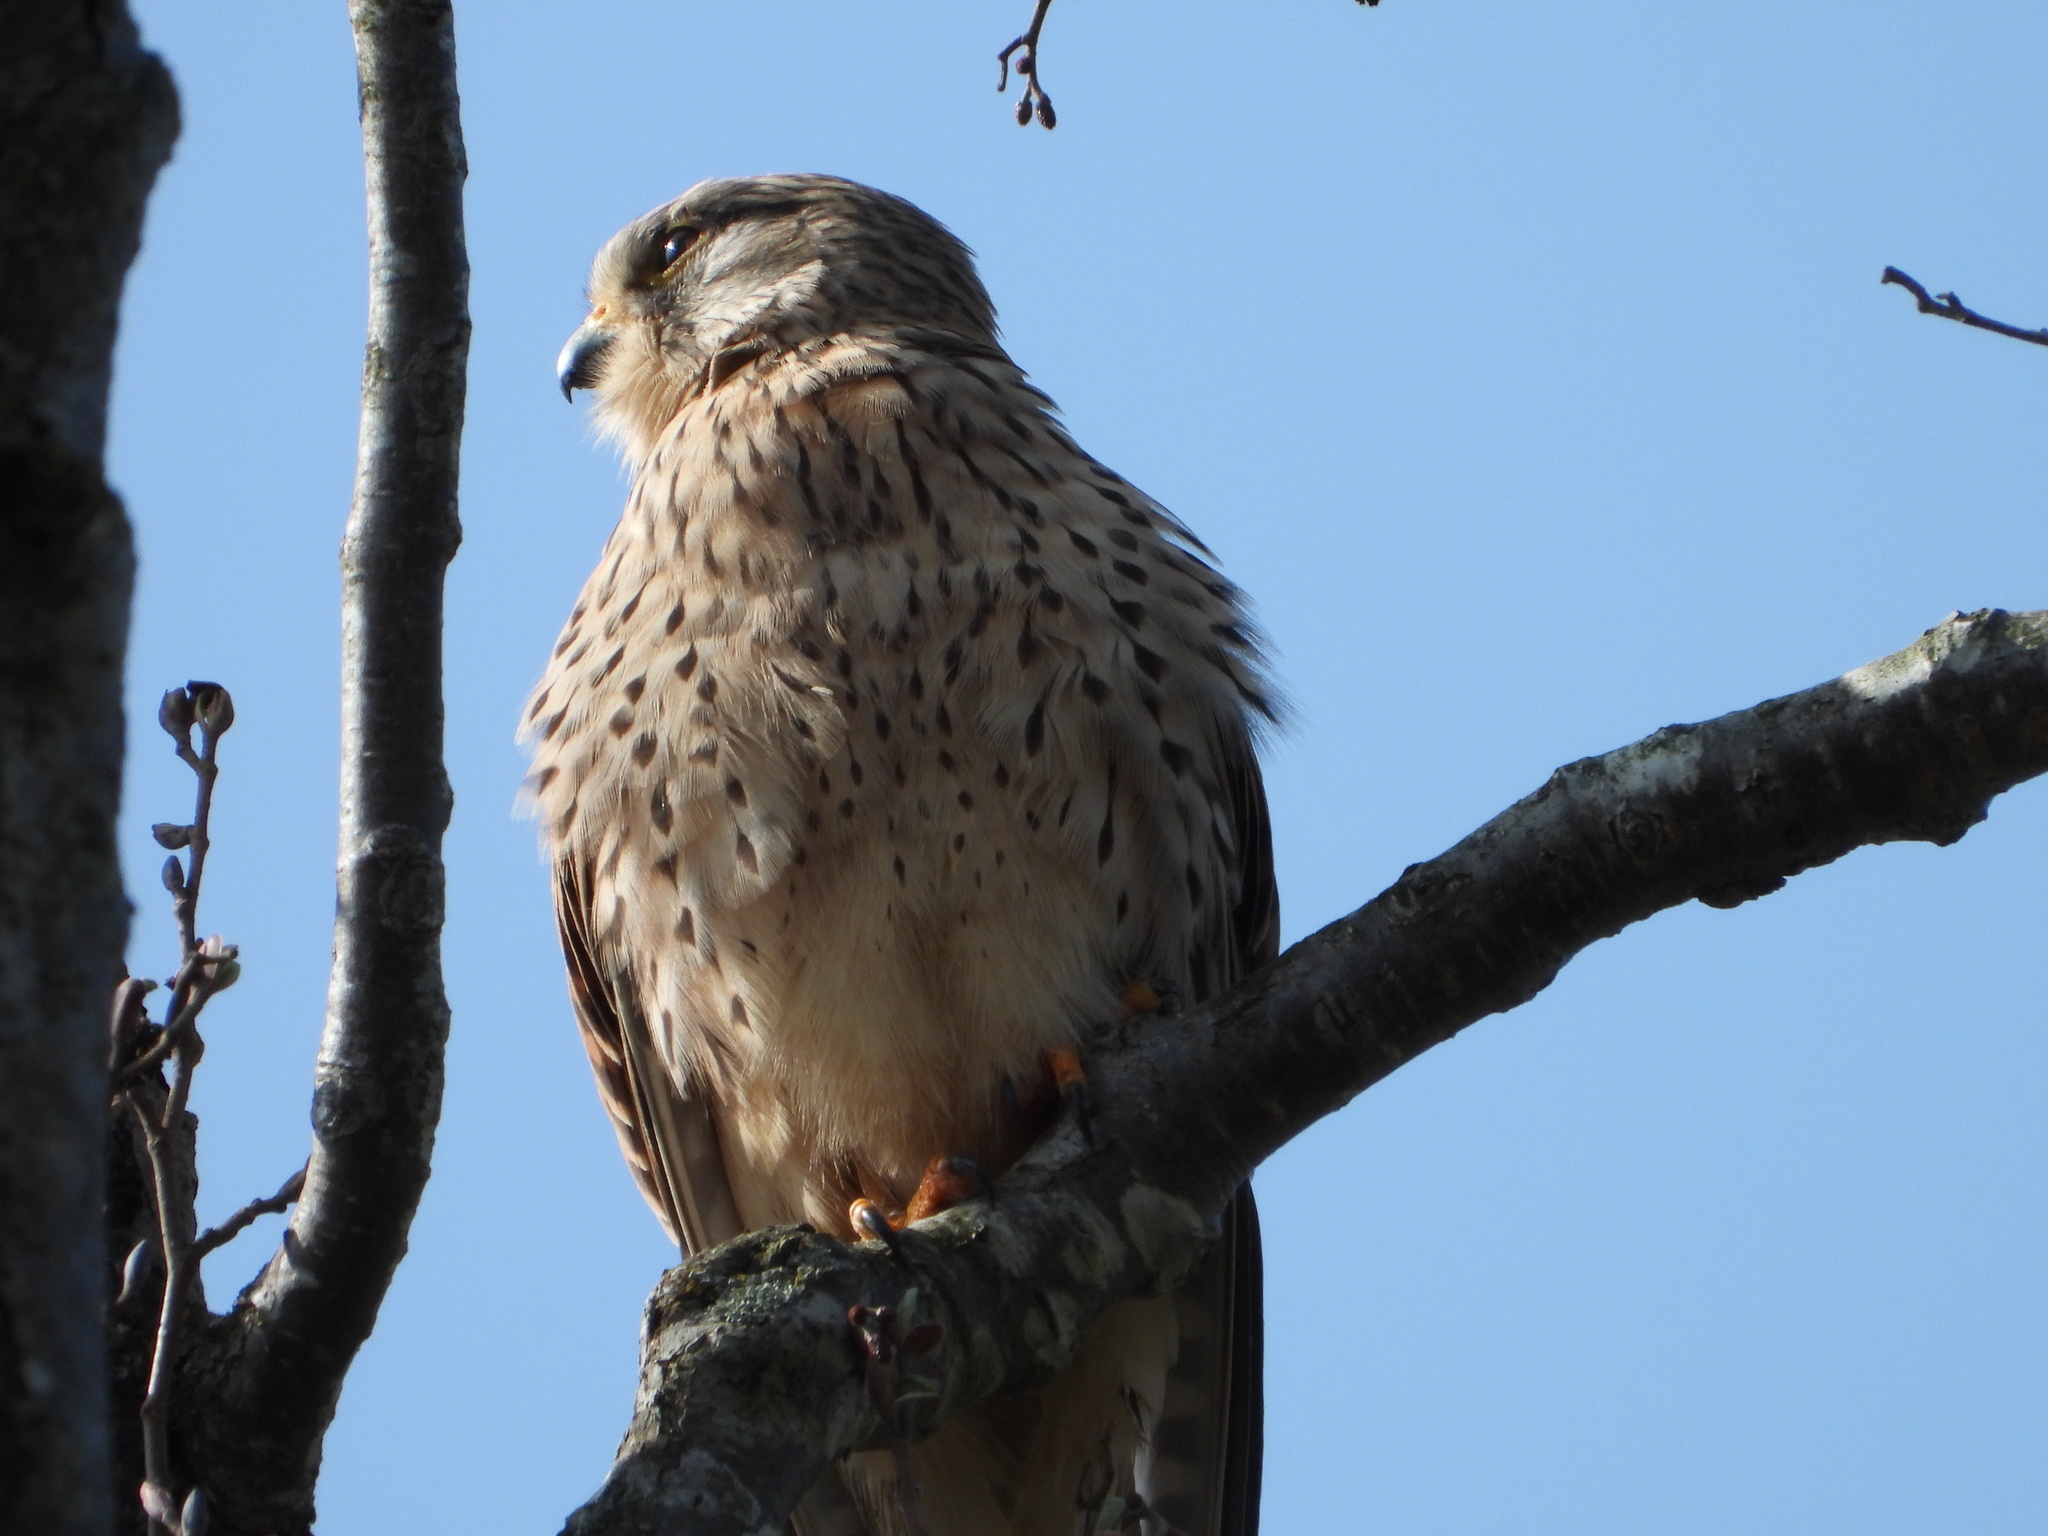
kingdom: Animalia
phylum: Chordata
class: Aves
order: Falconiformes
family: Falconidae
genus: Falco
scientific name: Falco tinnunculus
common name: Common kestrel
